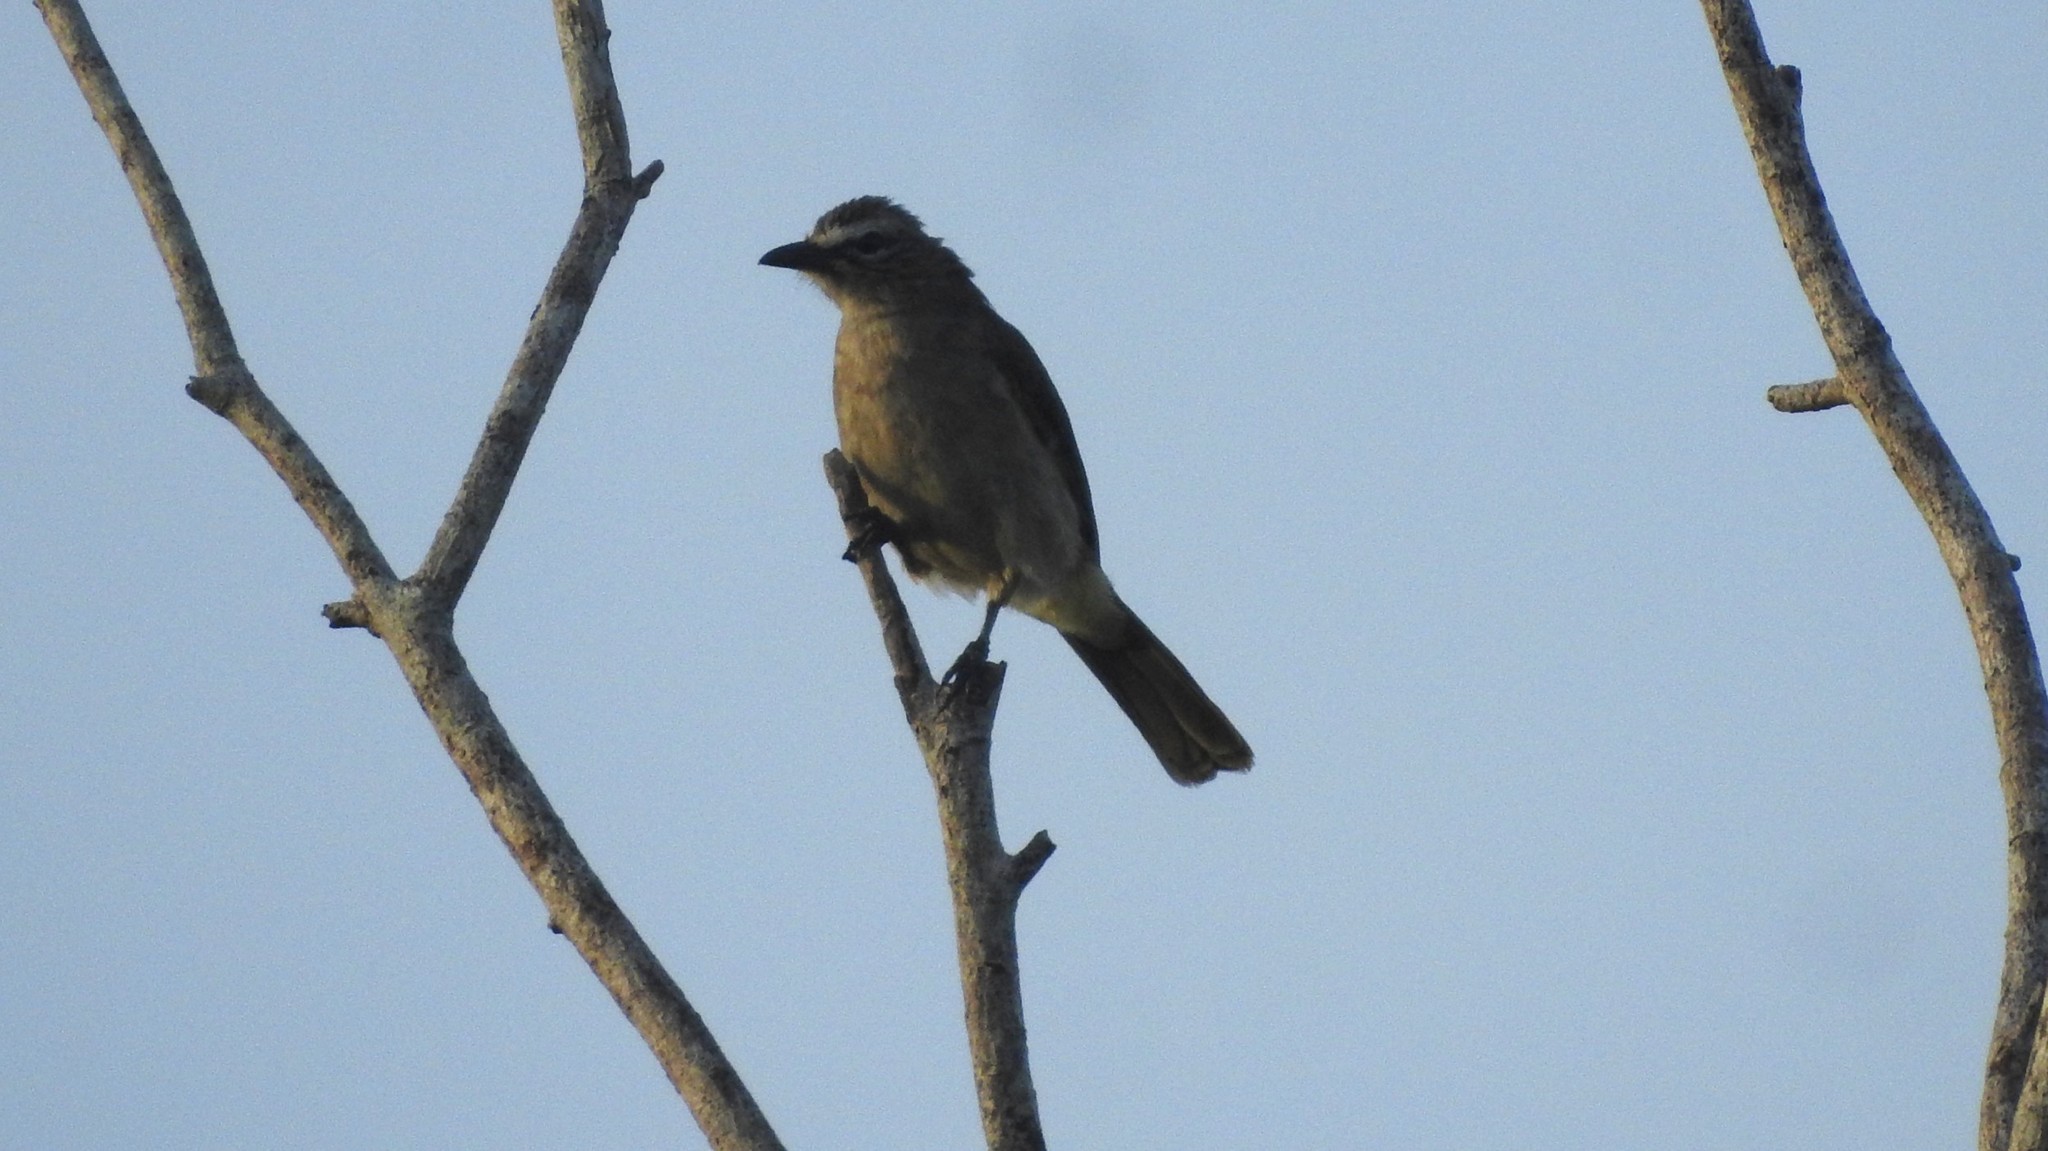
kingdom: Animalia
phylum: Chordata
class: Aves
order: Passeriformes
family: Pycnonotidae
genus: Pycnonotus
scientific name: Pycnonotus luteolus
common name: White-browed bulbul
